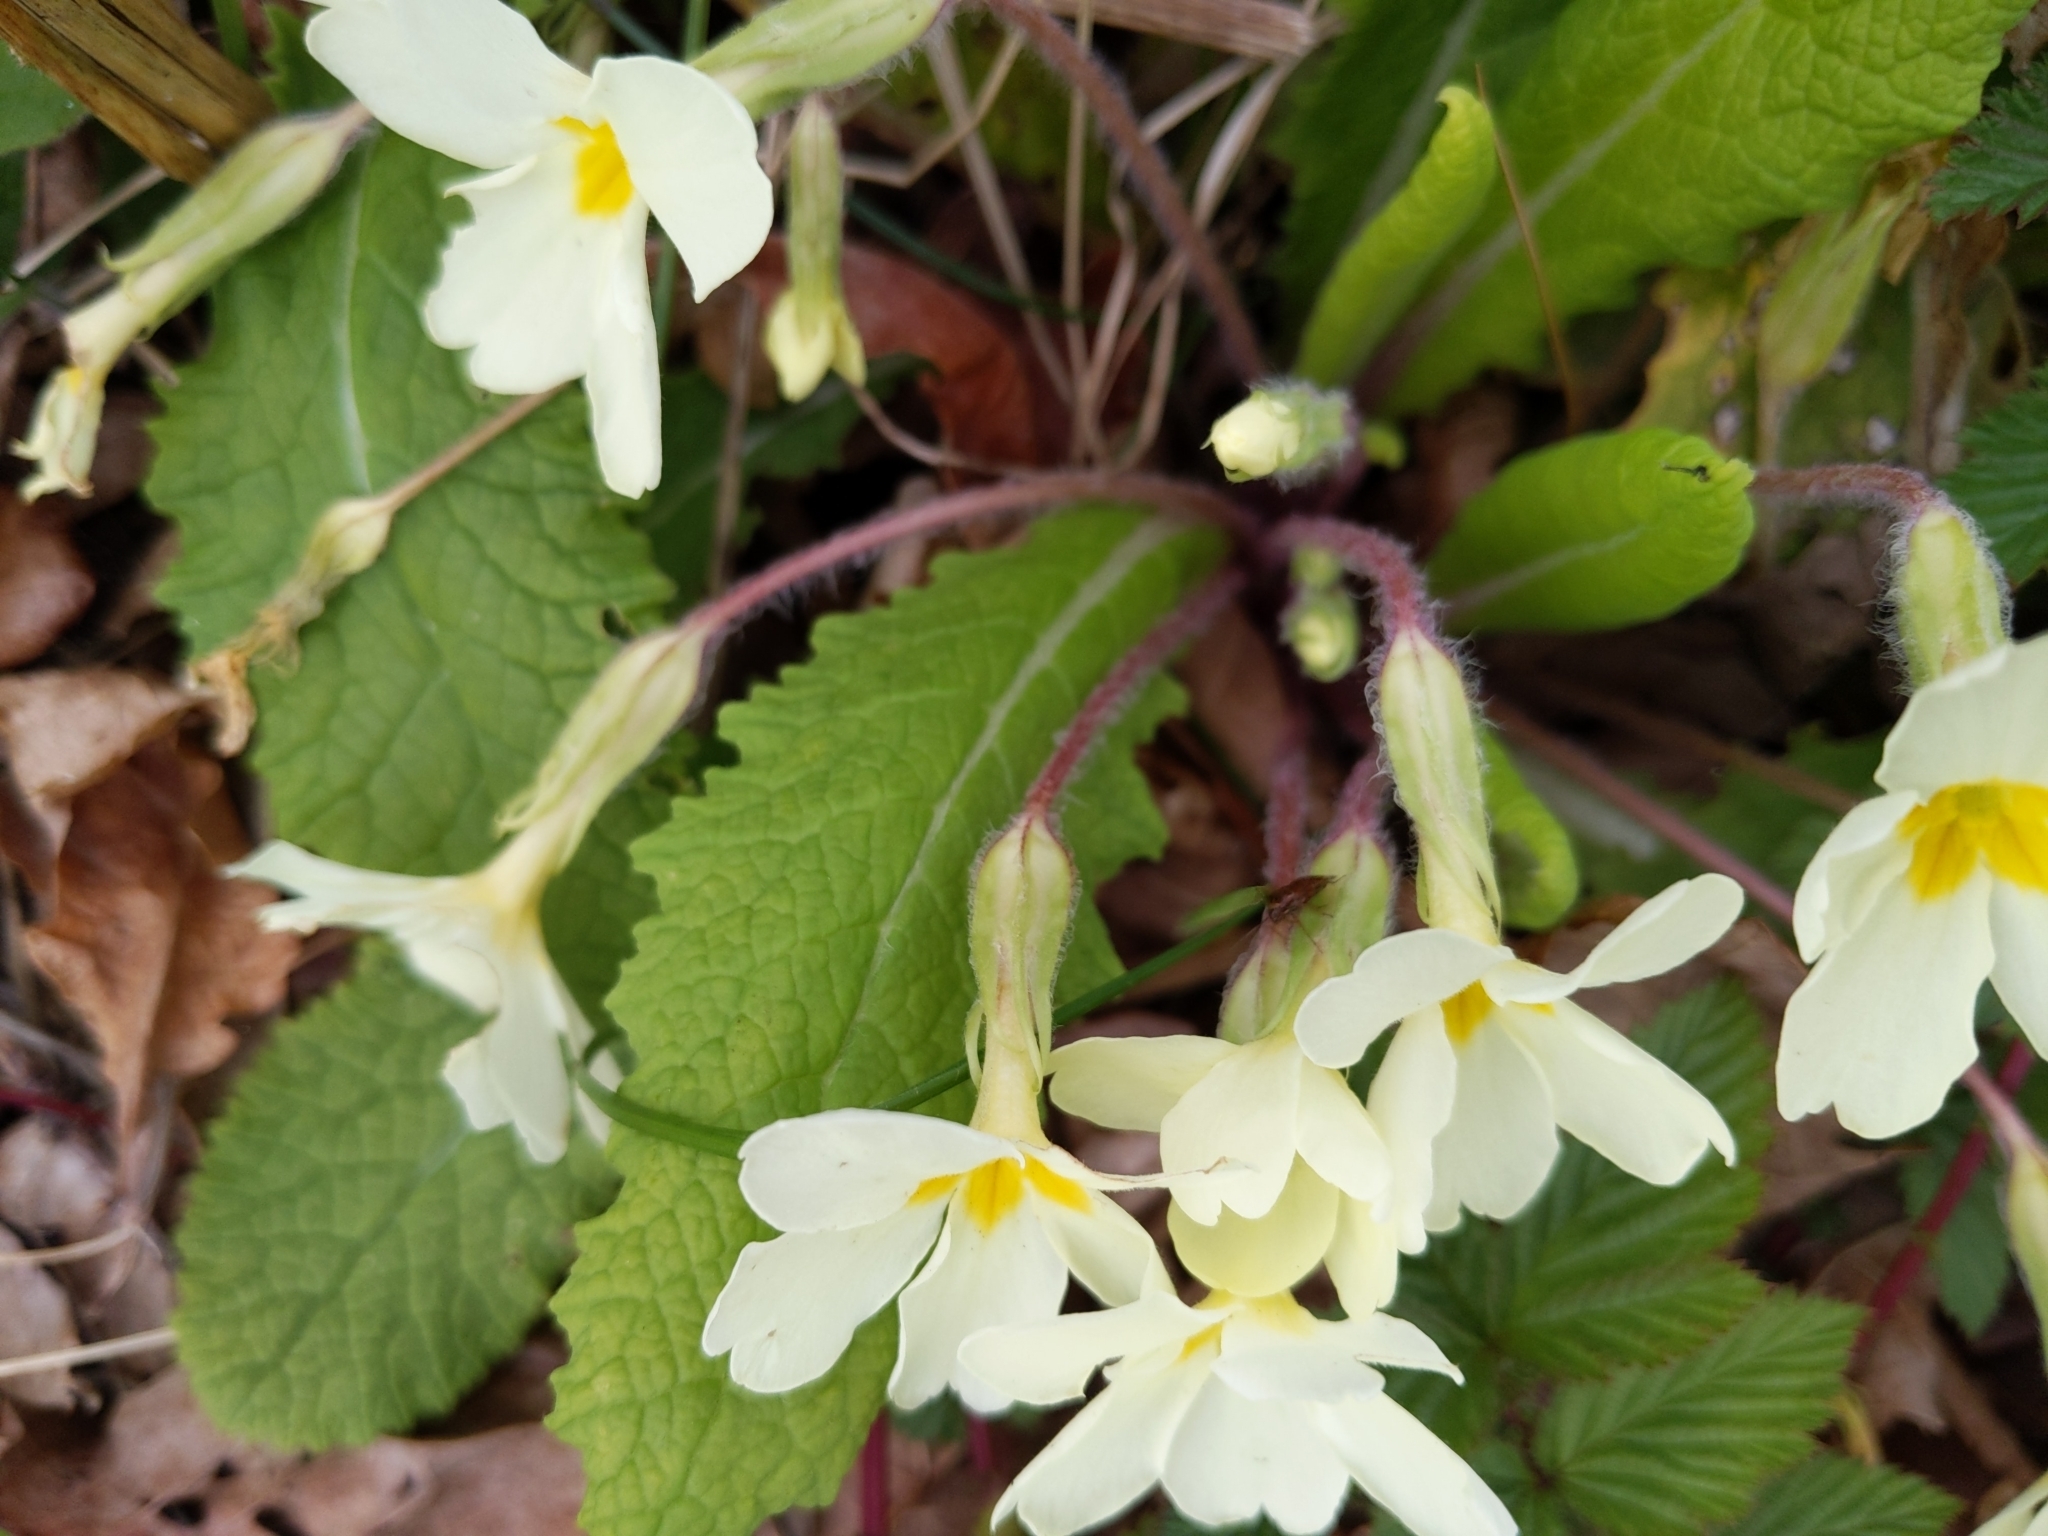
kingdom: Plantae
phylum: Tracheophyta
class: Magnoliopsida
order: Ericales
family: Primulaceae
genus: Primula
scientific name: Primula vulgaris
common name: Primrose
